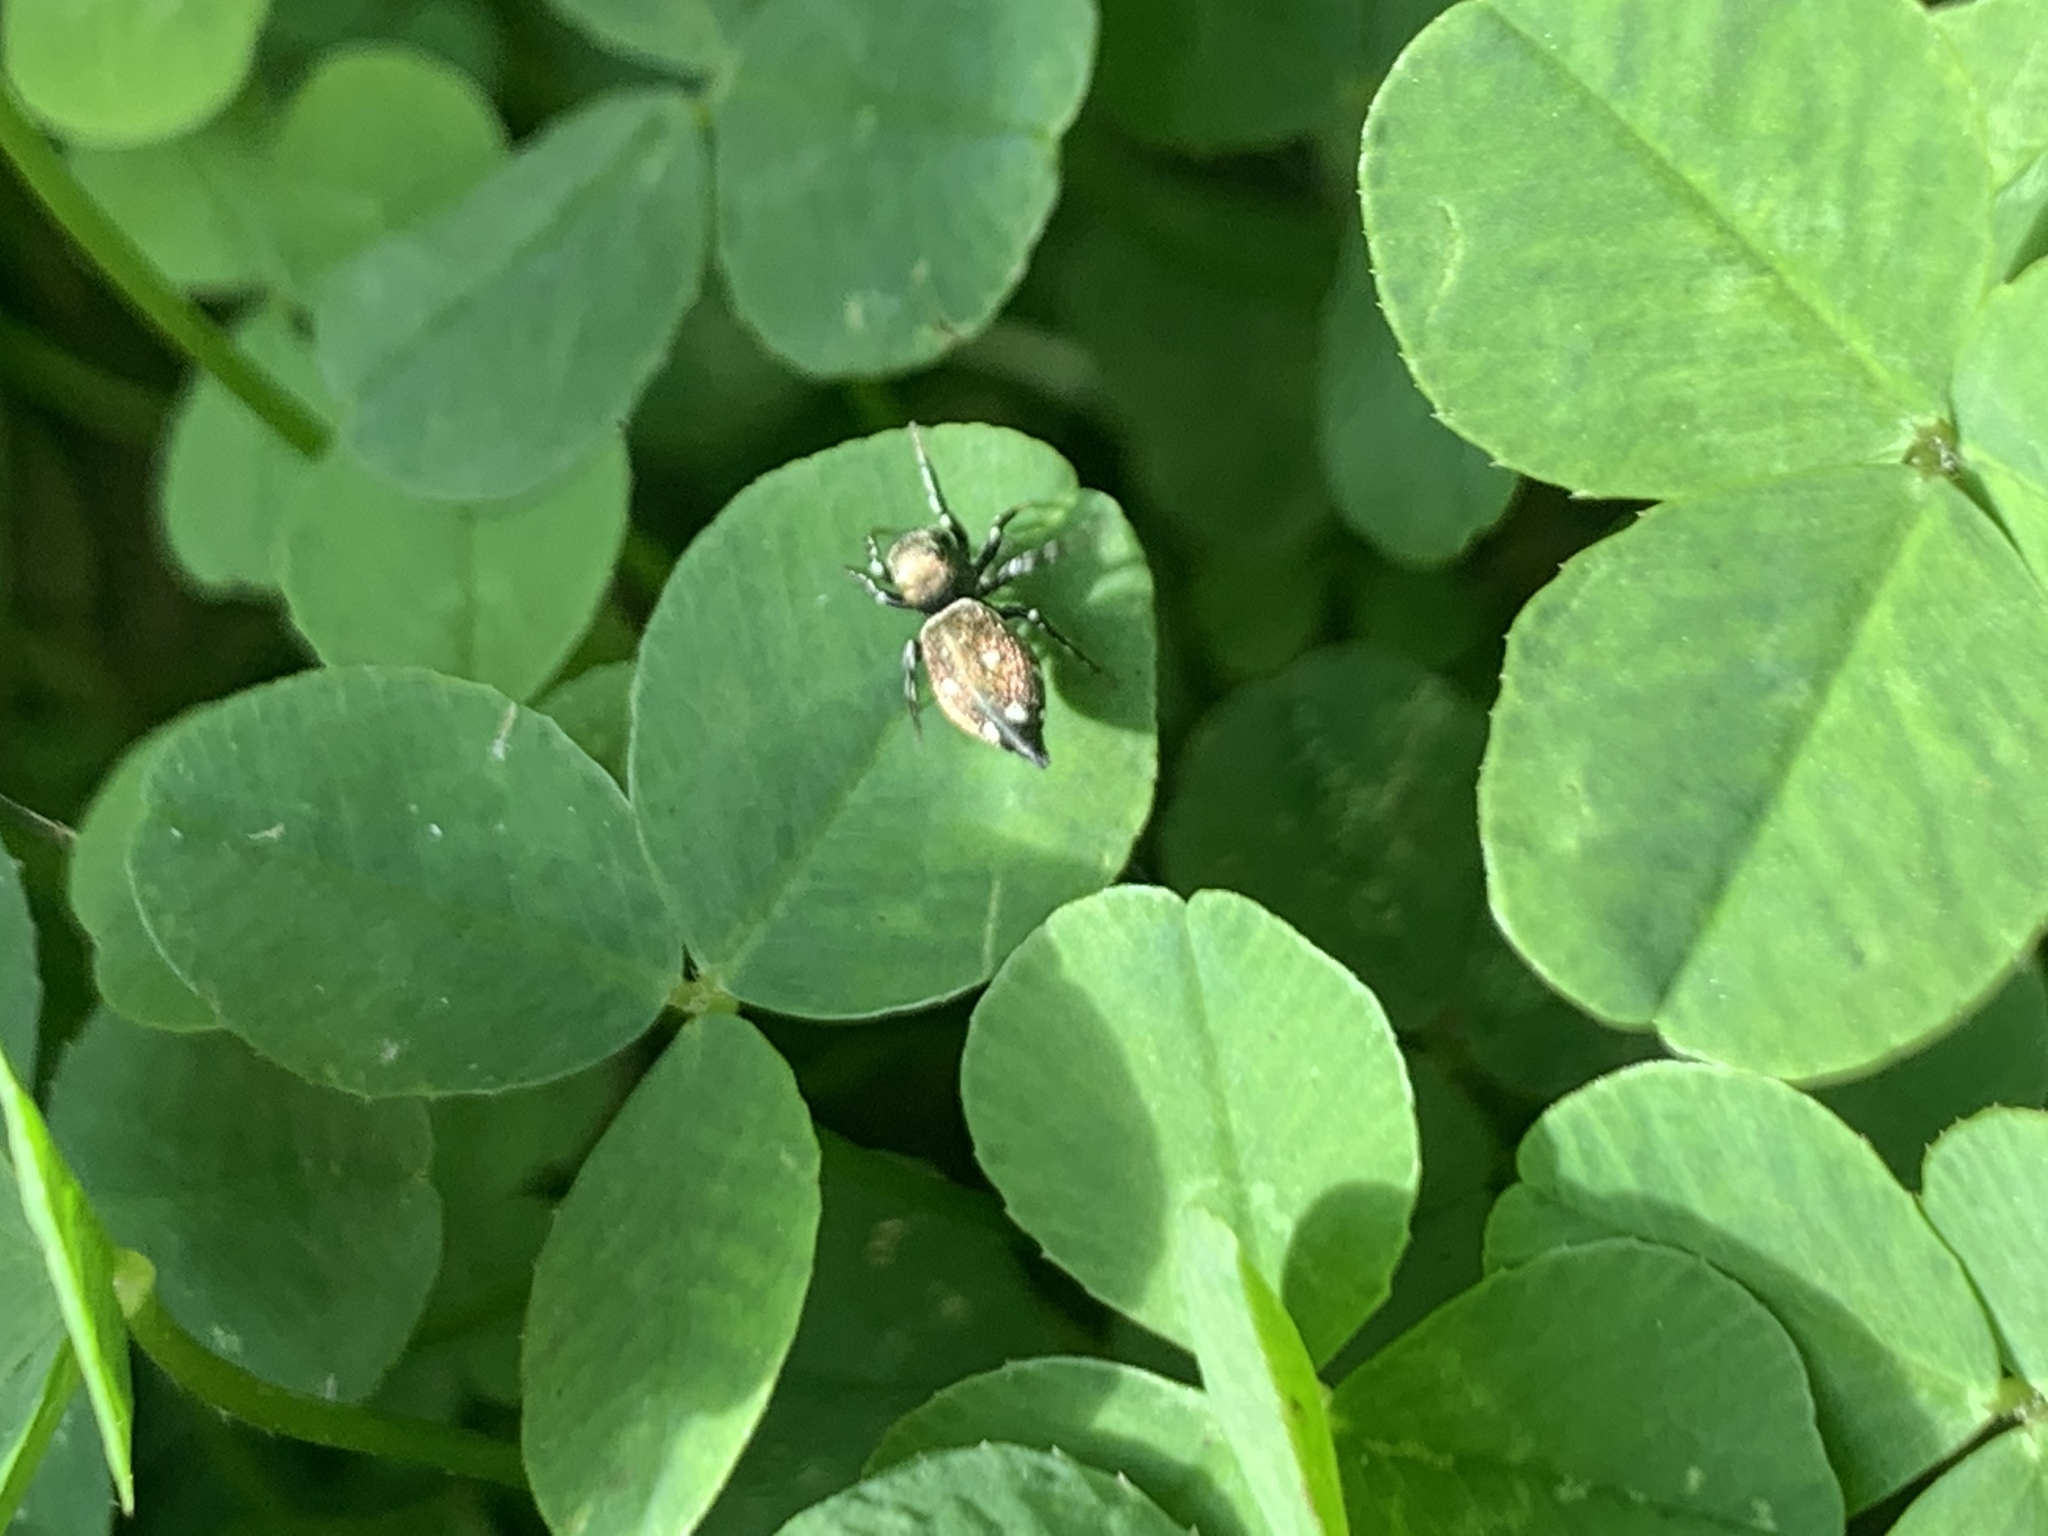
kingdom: Animalia
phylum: Arthropoda
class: Arachnida
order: Araneae
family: Salticidae
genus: Heliophanus
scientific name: Heliophanus kochii
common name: Sun jumping spider
